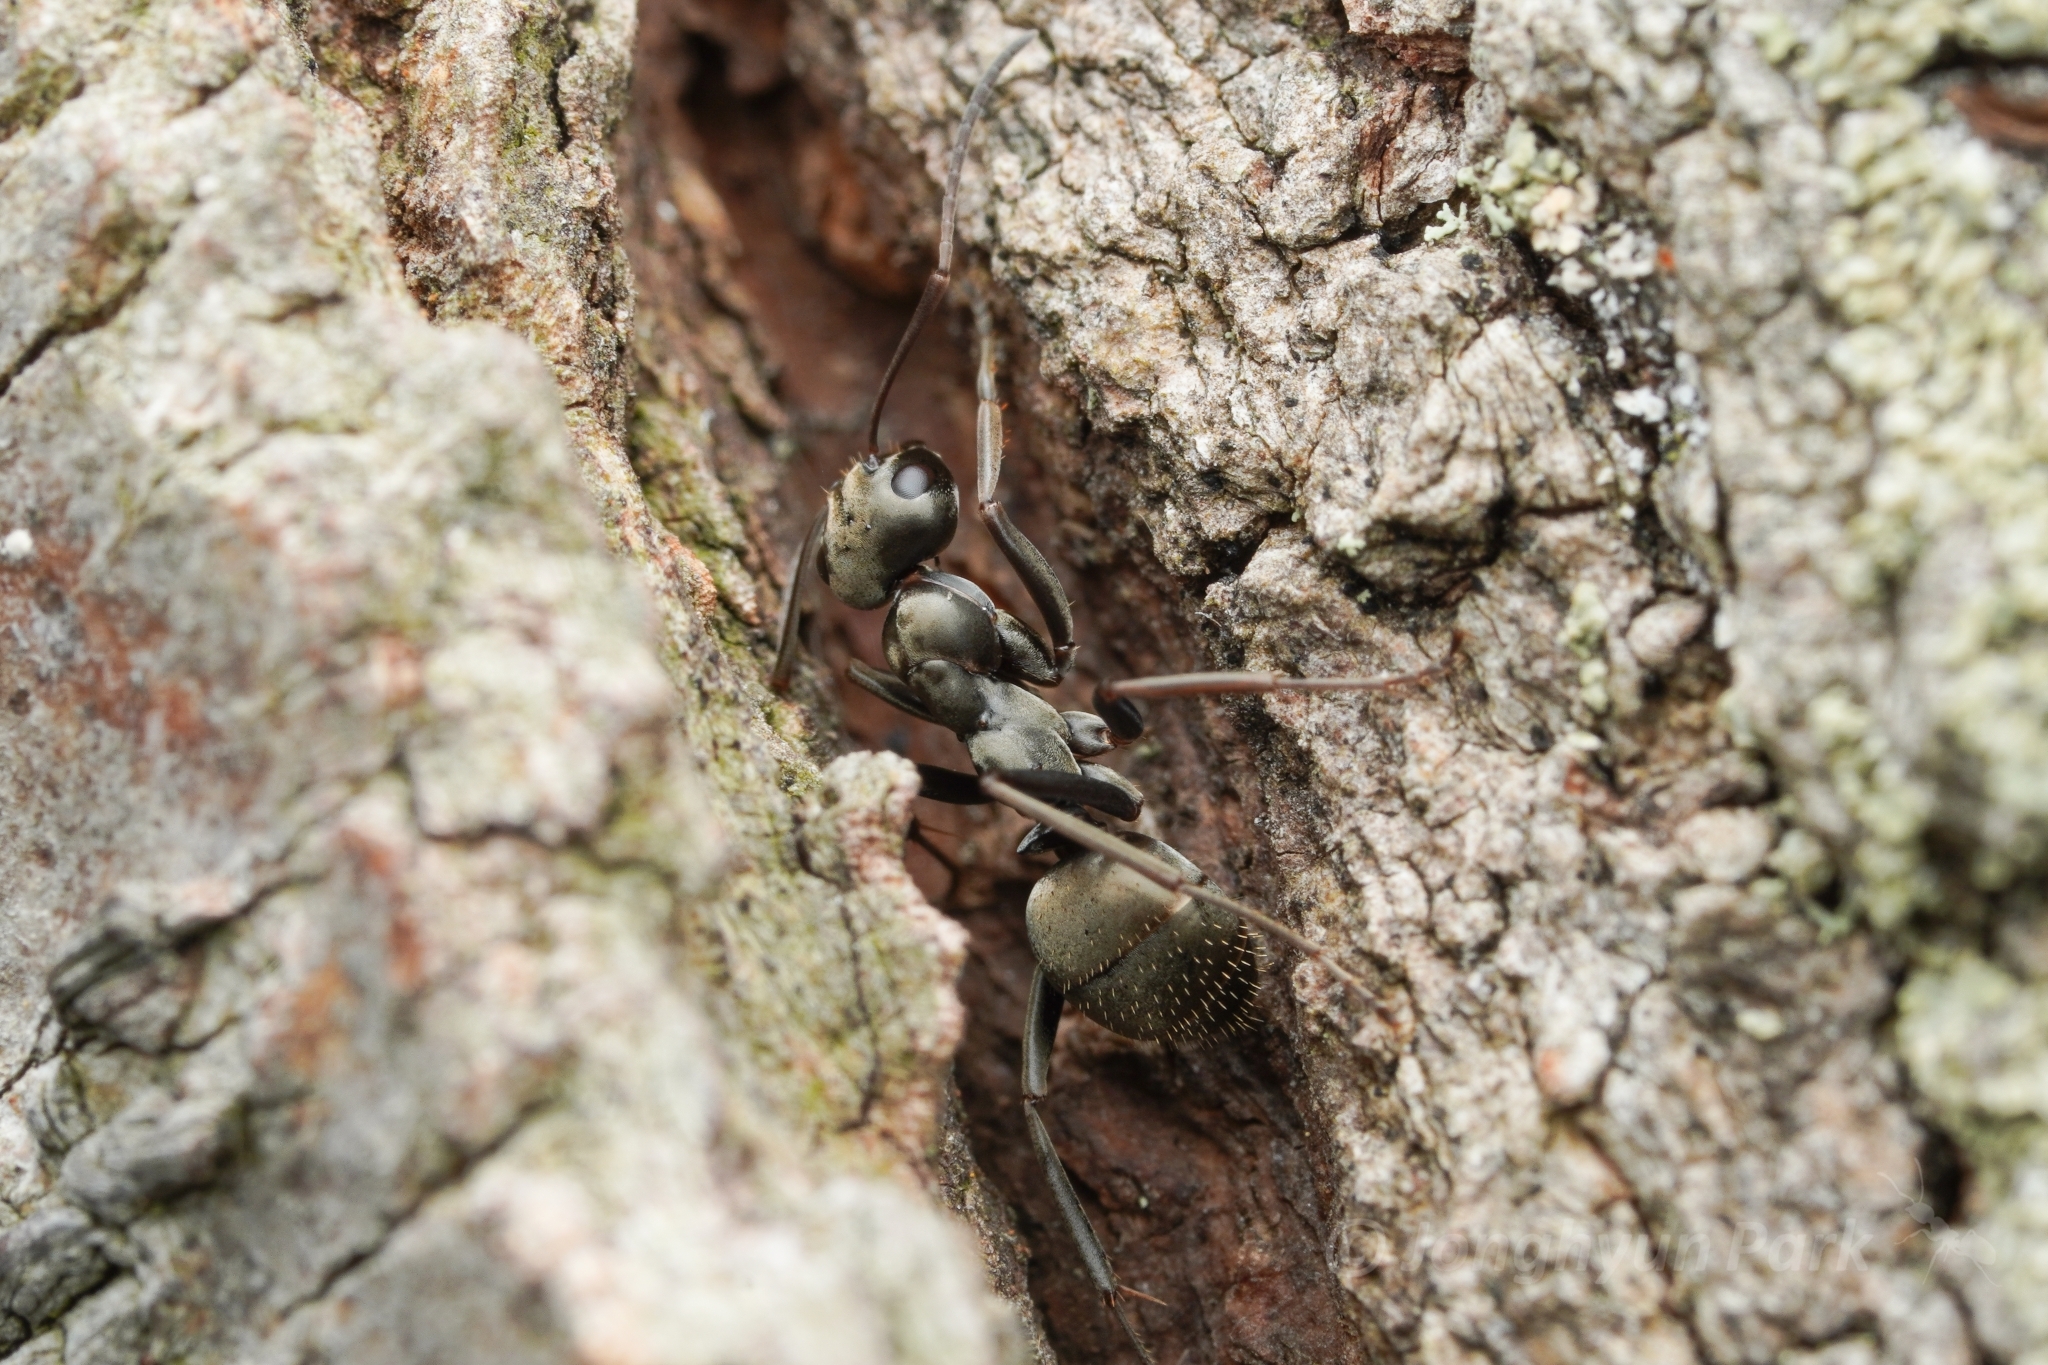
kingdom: Animalia
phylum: Arthropoda
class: Insecta
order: Hymenoptera
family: Formicidae
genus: Formica
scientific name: Formica subsericea
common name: Silky field ant
